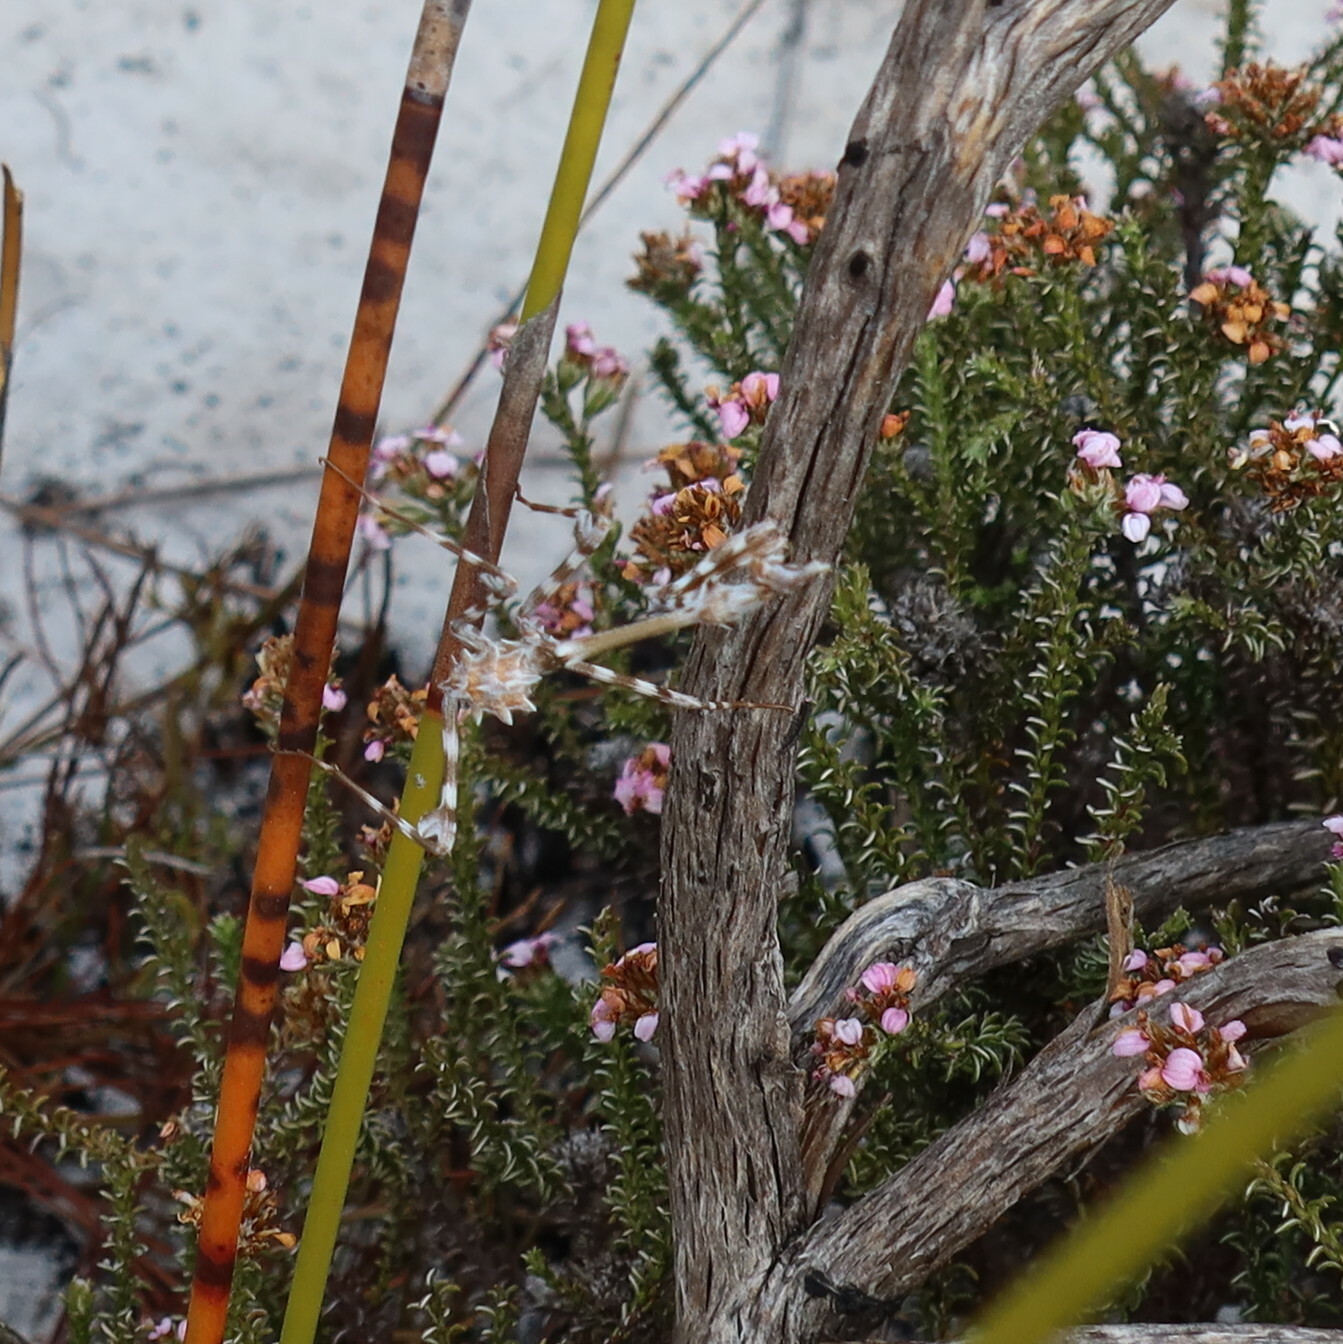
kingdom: Animalia
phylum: Arthropoda
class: Insecta
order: Mantodea
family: Empusidae
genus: Empusa
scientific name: Empusa binotata
